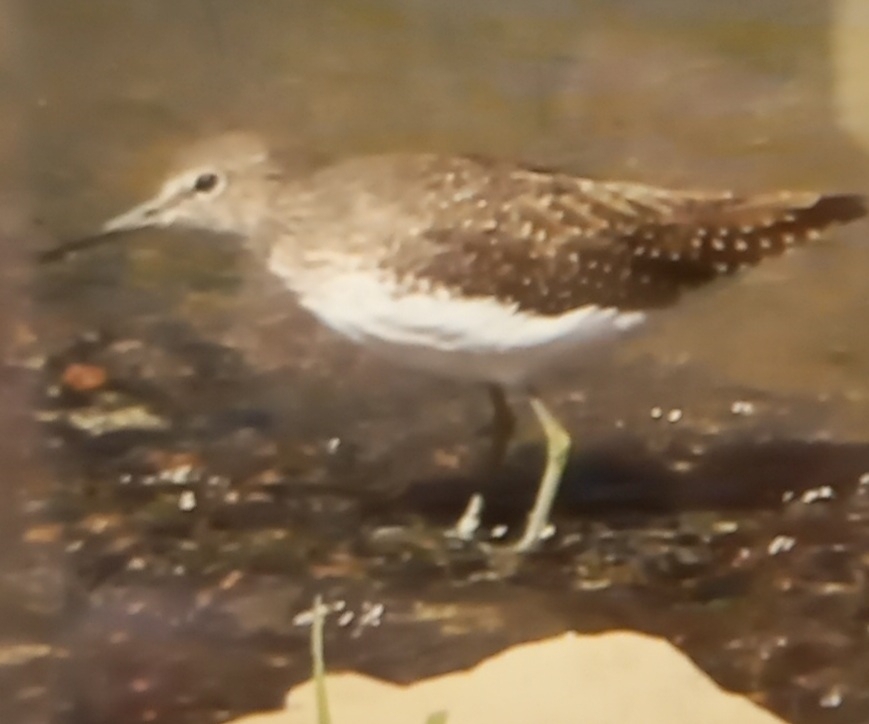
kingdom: Animalia
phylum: Chordata
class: Aves
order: Charadriiformes
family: Scolopacidae
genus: Tringa
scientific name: Tringa ochropus
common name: Green sandpiper
